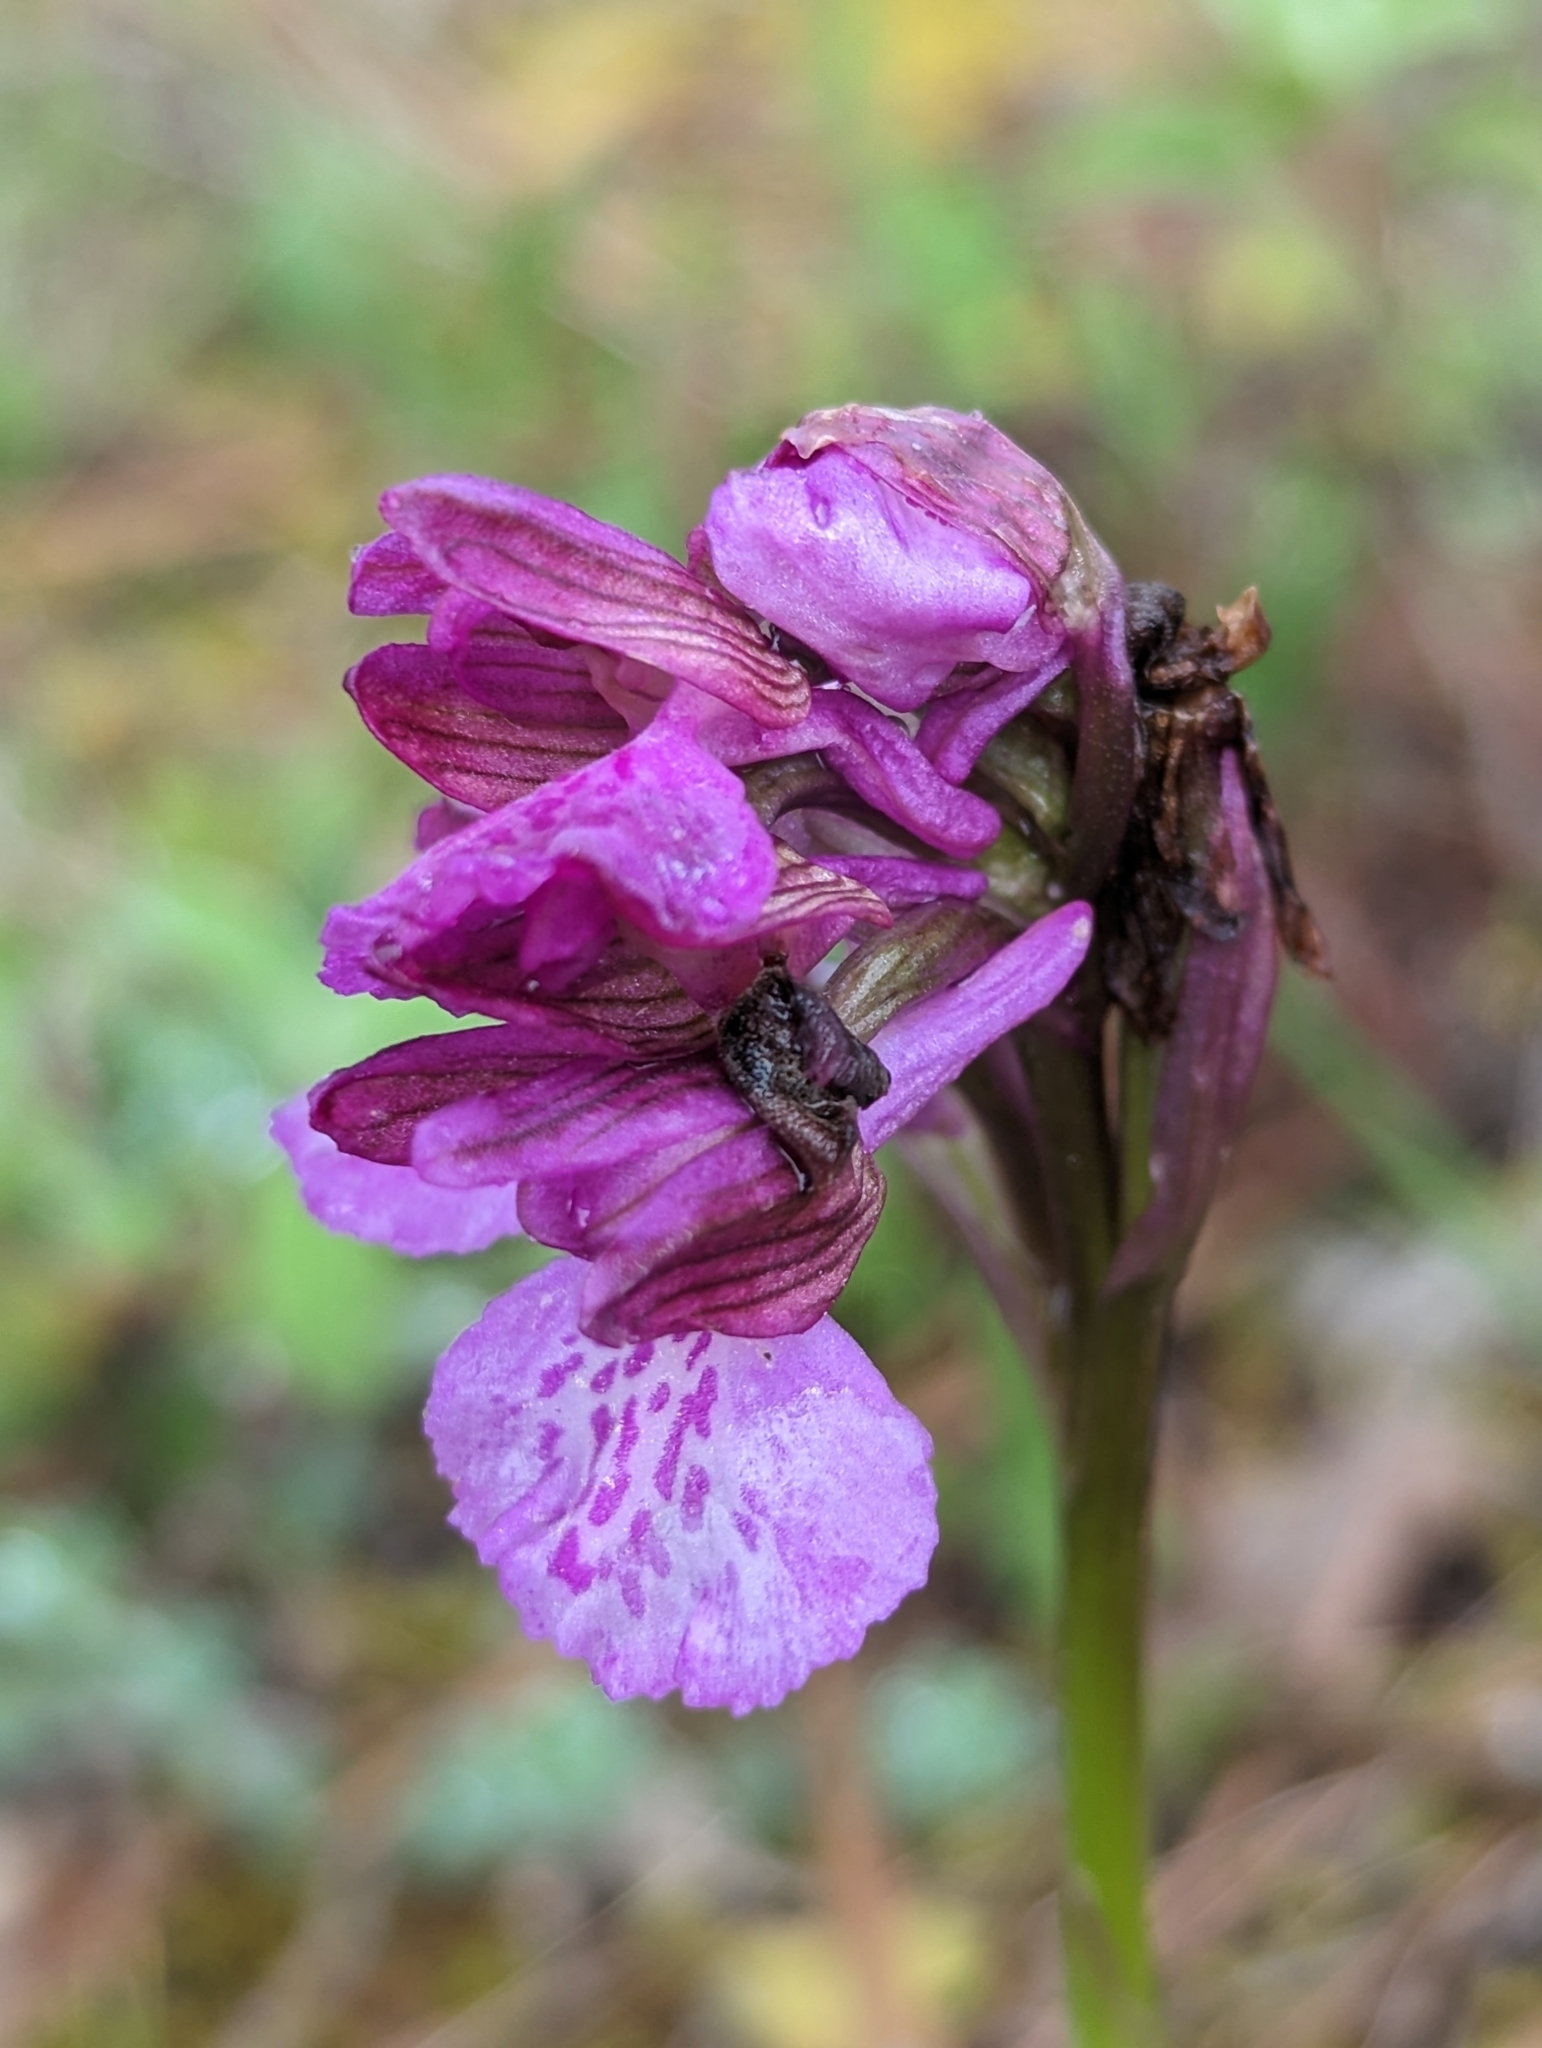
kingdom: Plantae
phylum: Tracheophyta
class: Liliopsida
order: Asparagales
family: Orchidaceae
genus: Anacamptis
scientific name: Anacamptis gennarii
